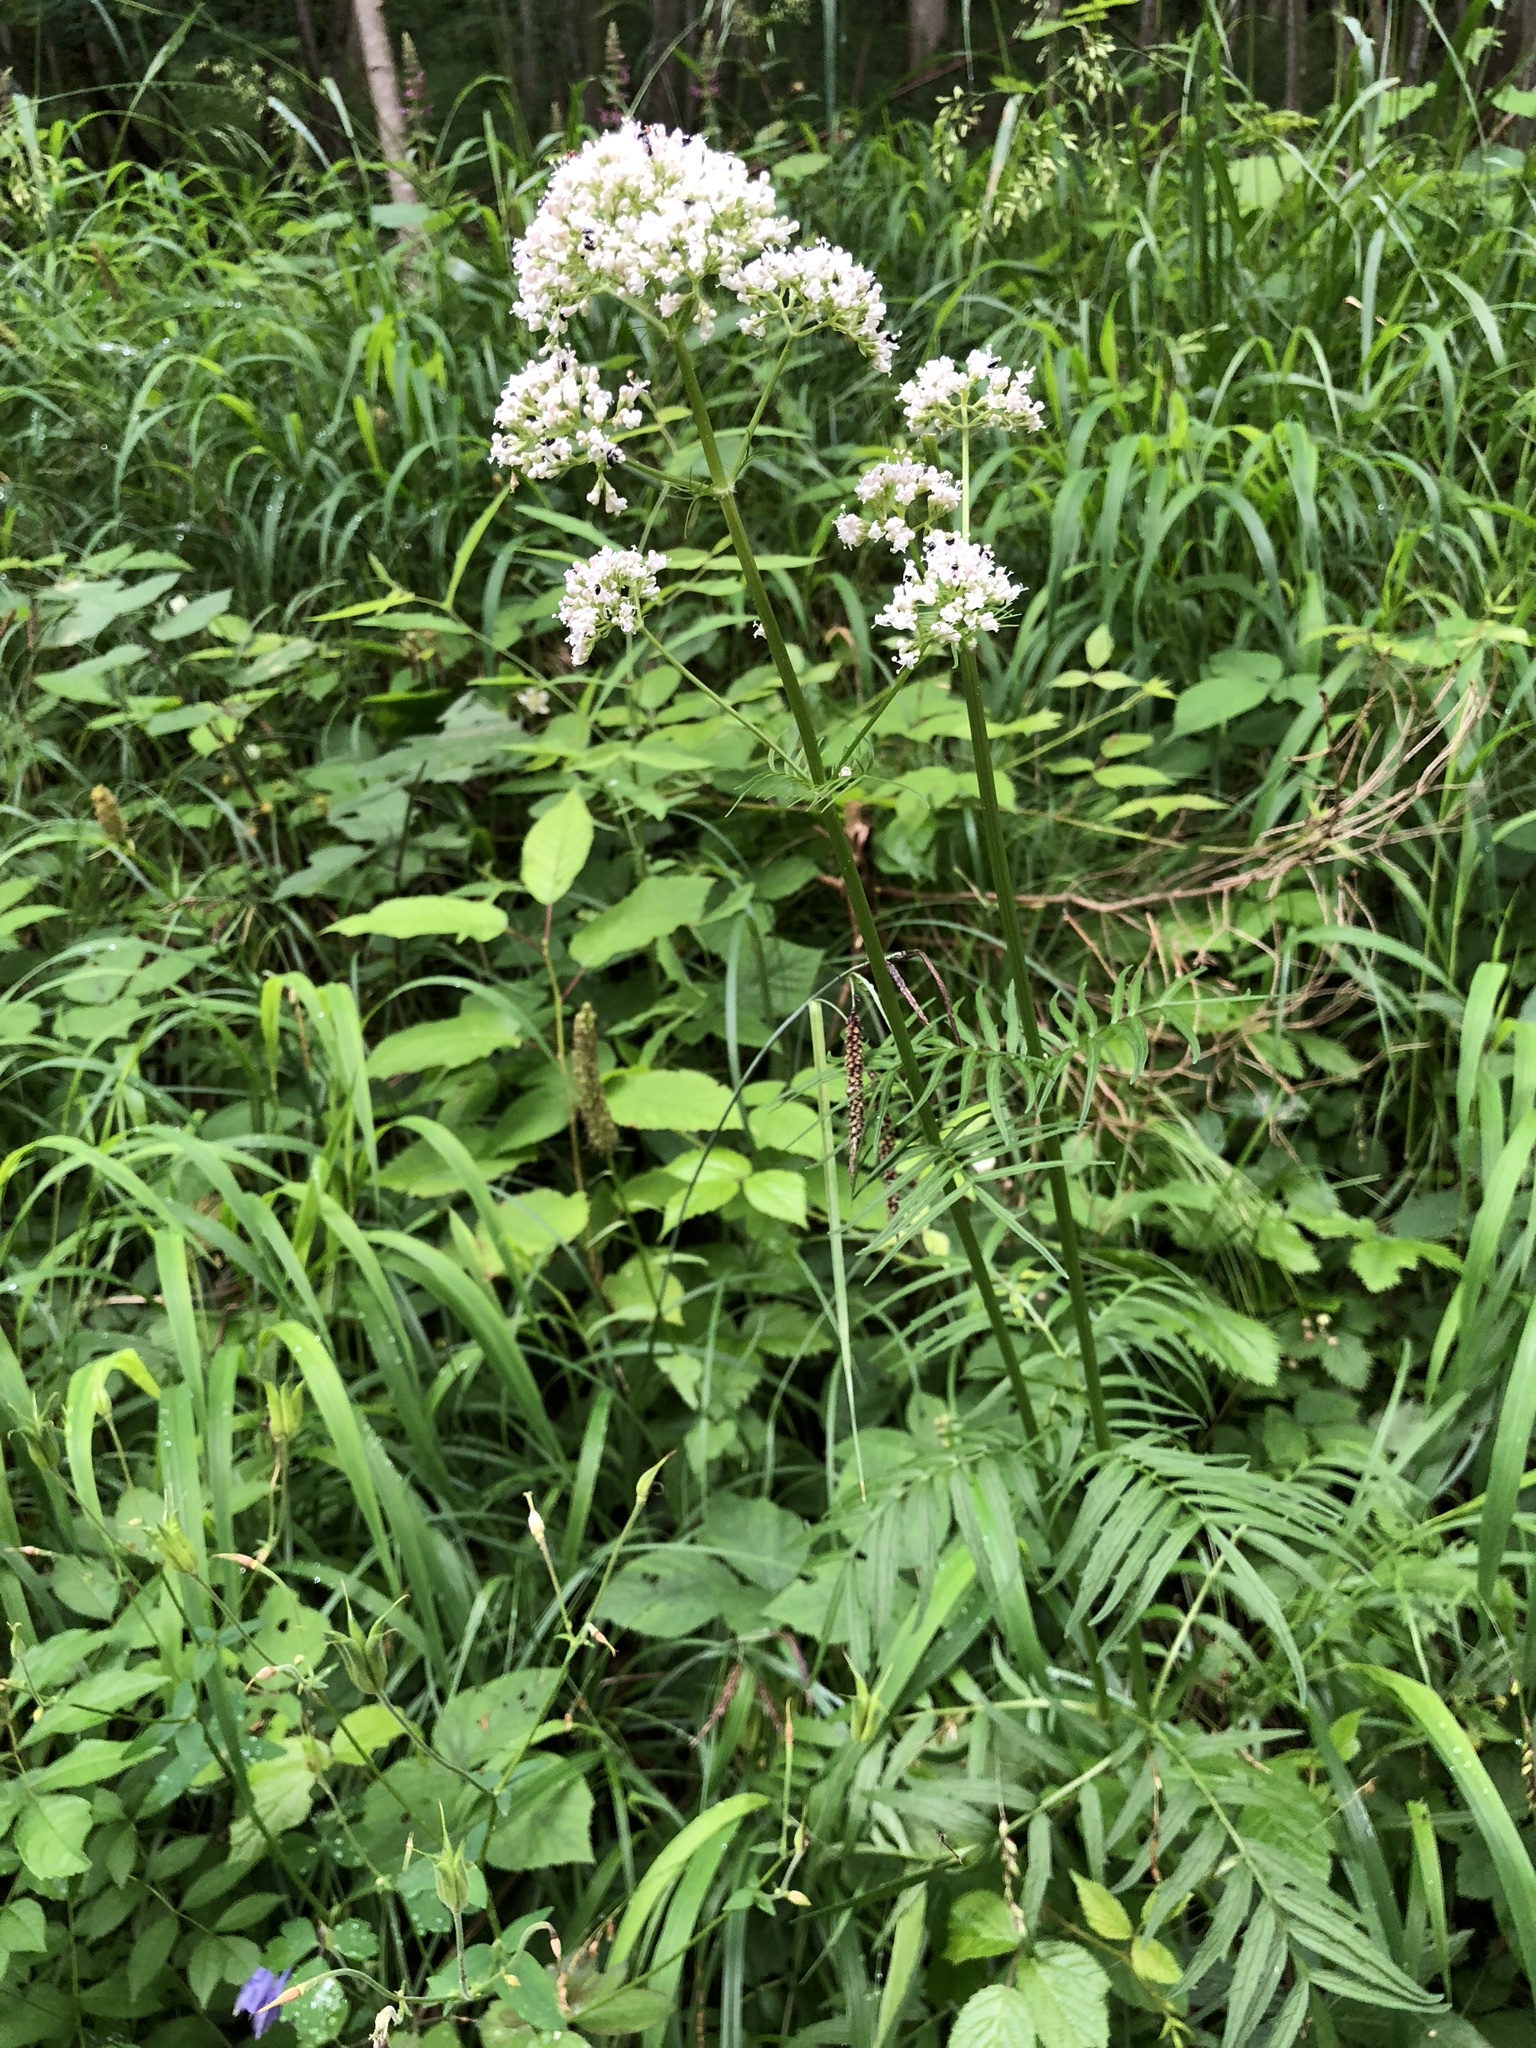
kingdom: Plantae
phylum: Tracheophyta
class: Magnoliopsida
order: Dipsacales
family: Caprifoliaceae
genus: Valeriana
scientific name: Valeriana officinalis
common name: Common valerian
